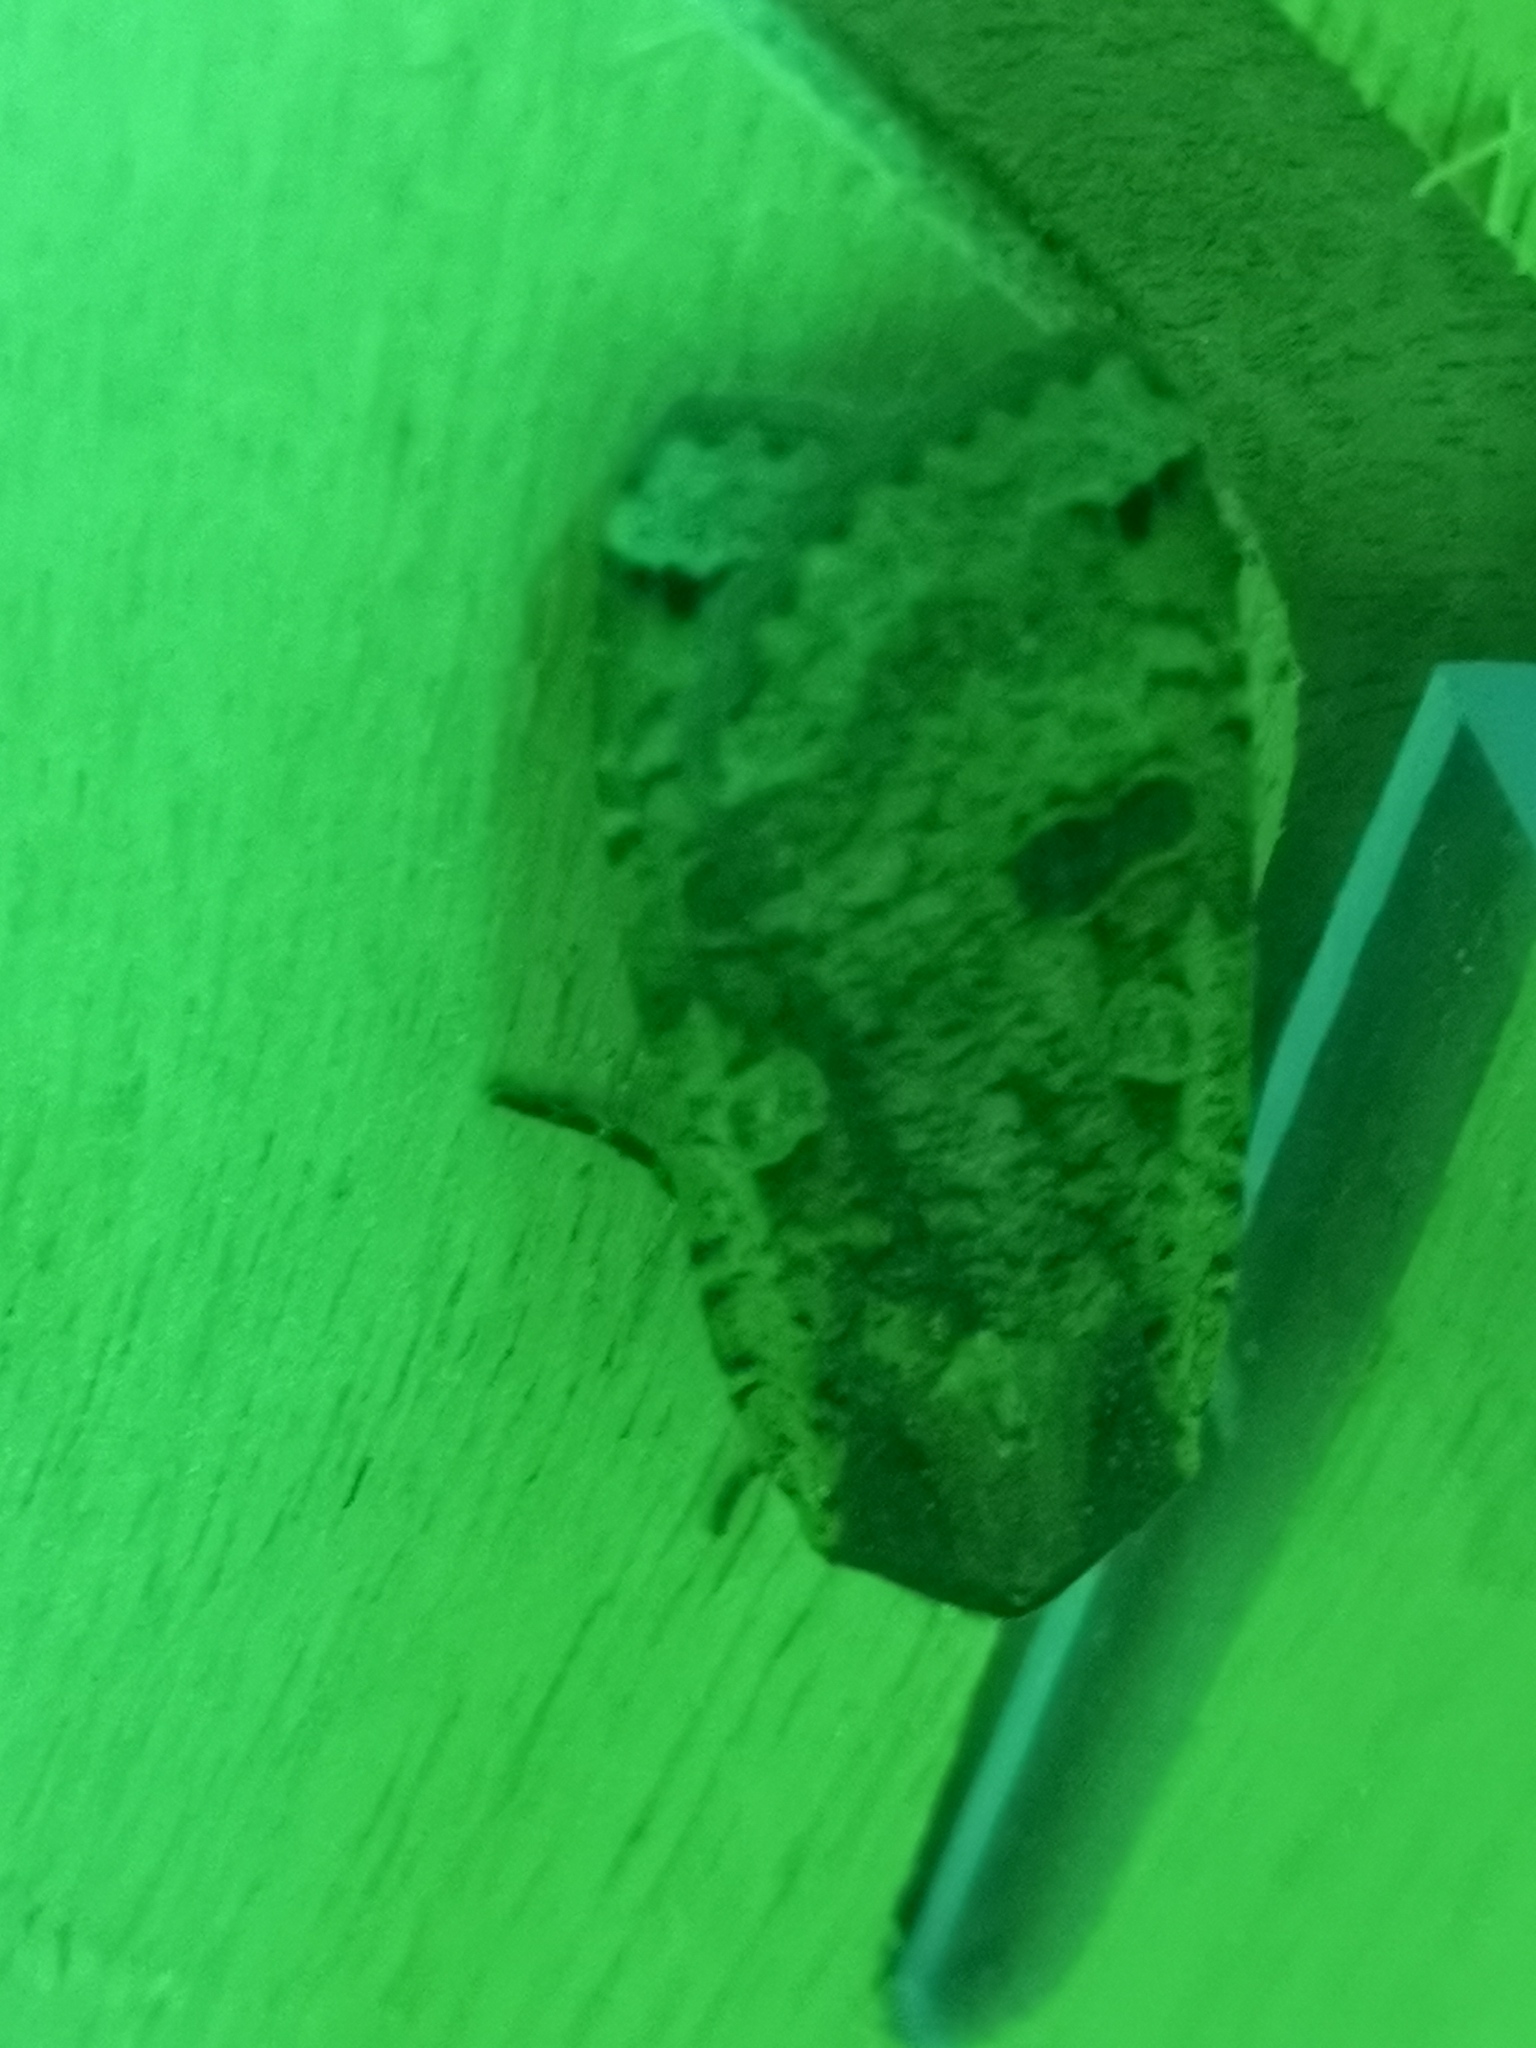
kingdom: Animalia
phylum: Arthropoda
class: Insecta
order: Lepidoptera
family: Noctuidae
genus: Noctua
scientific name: Noctua pronuba
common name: Large yellow underwing
